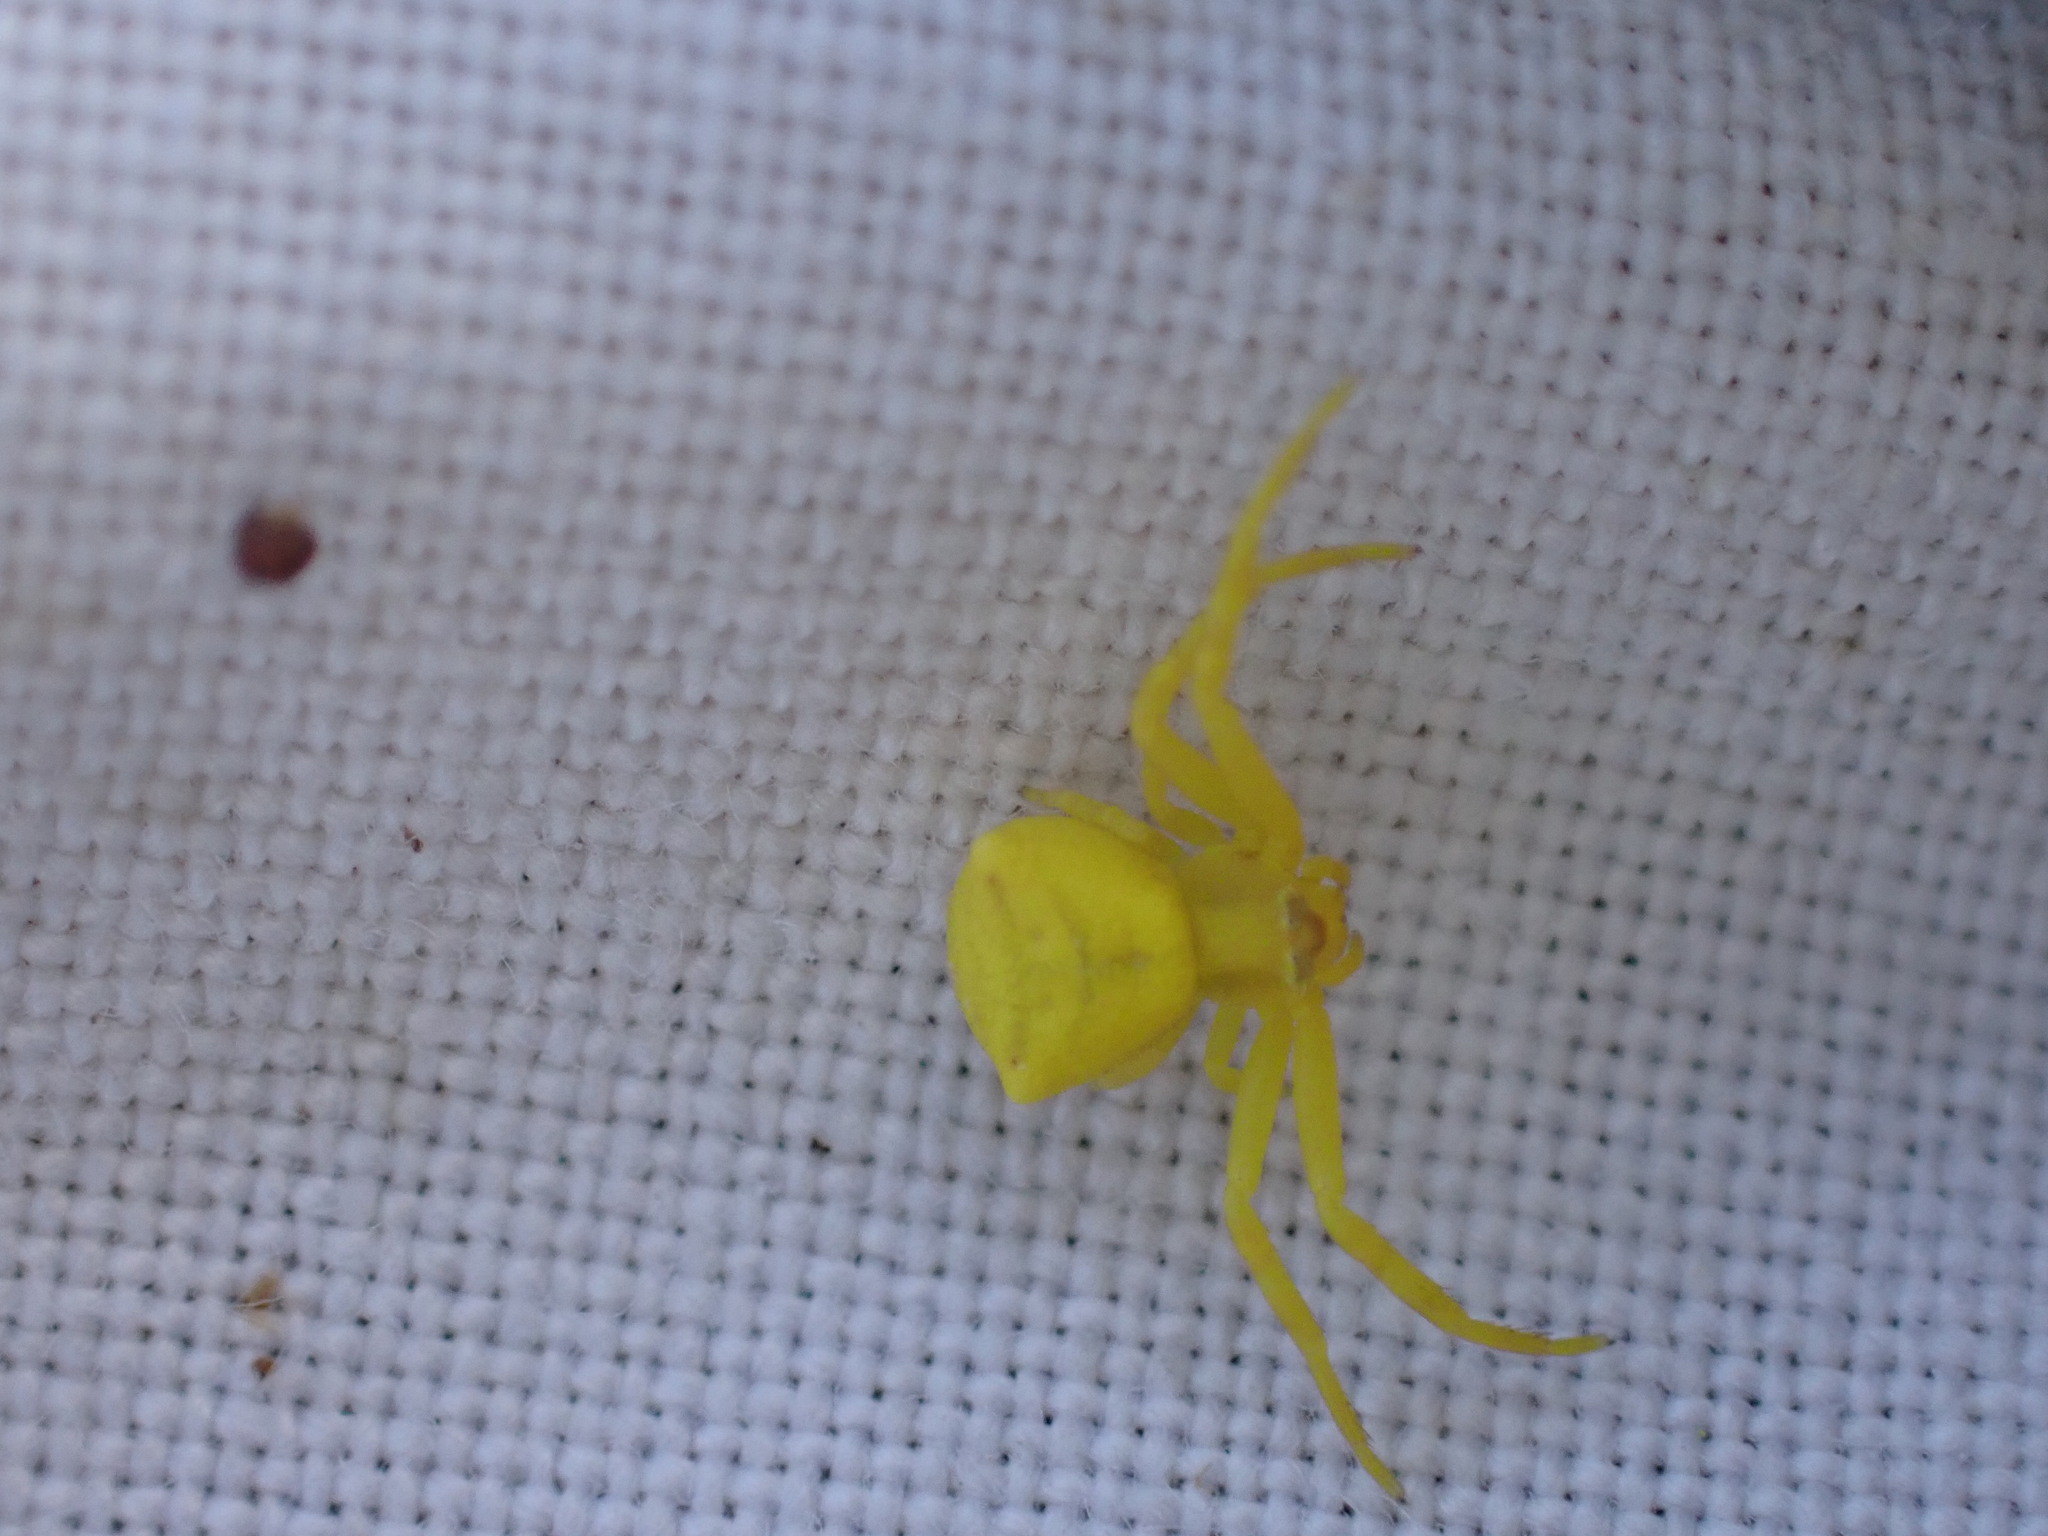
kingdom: Animalia
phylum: Arthropoda
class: Arachnida
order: Araneae
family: Thomisidae
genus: Thomisus
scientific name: Thomisus onustus
